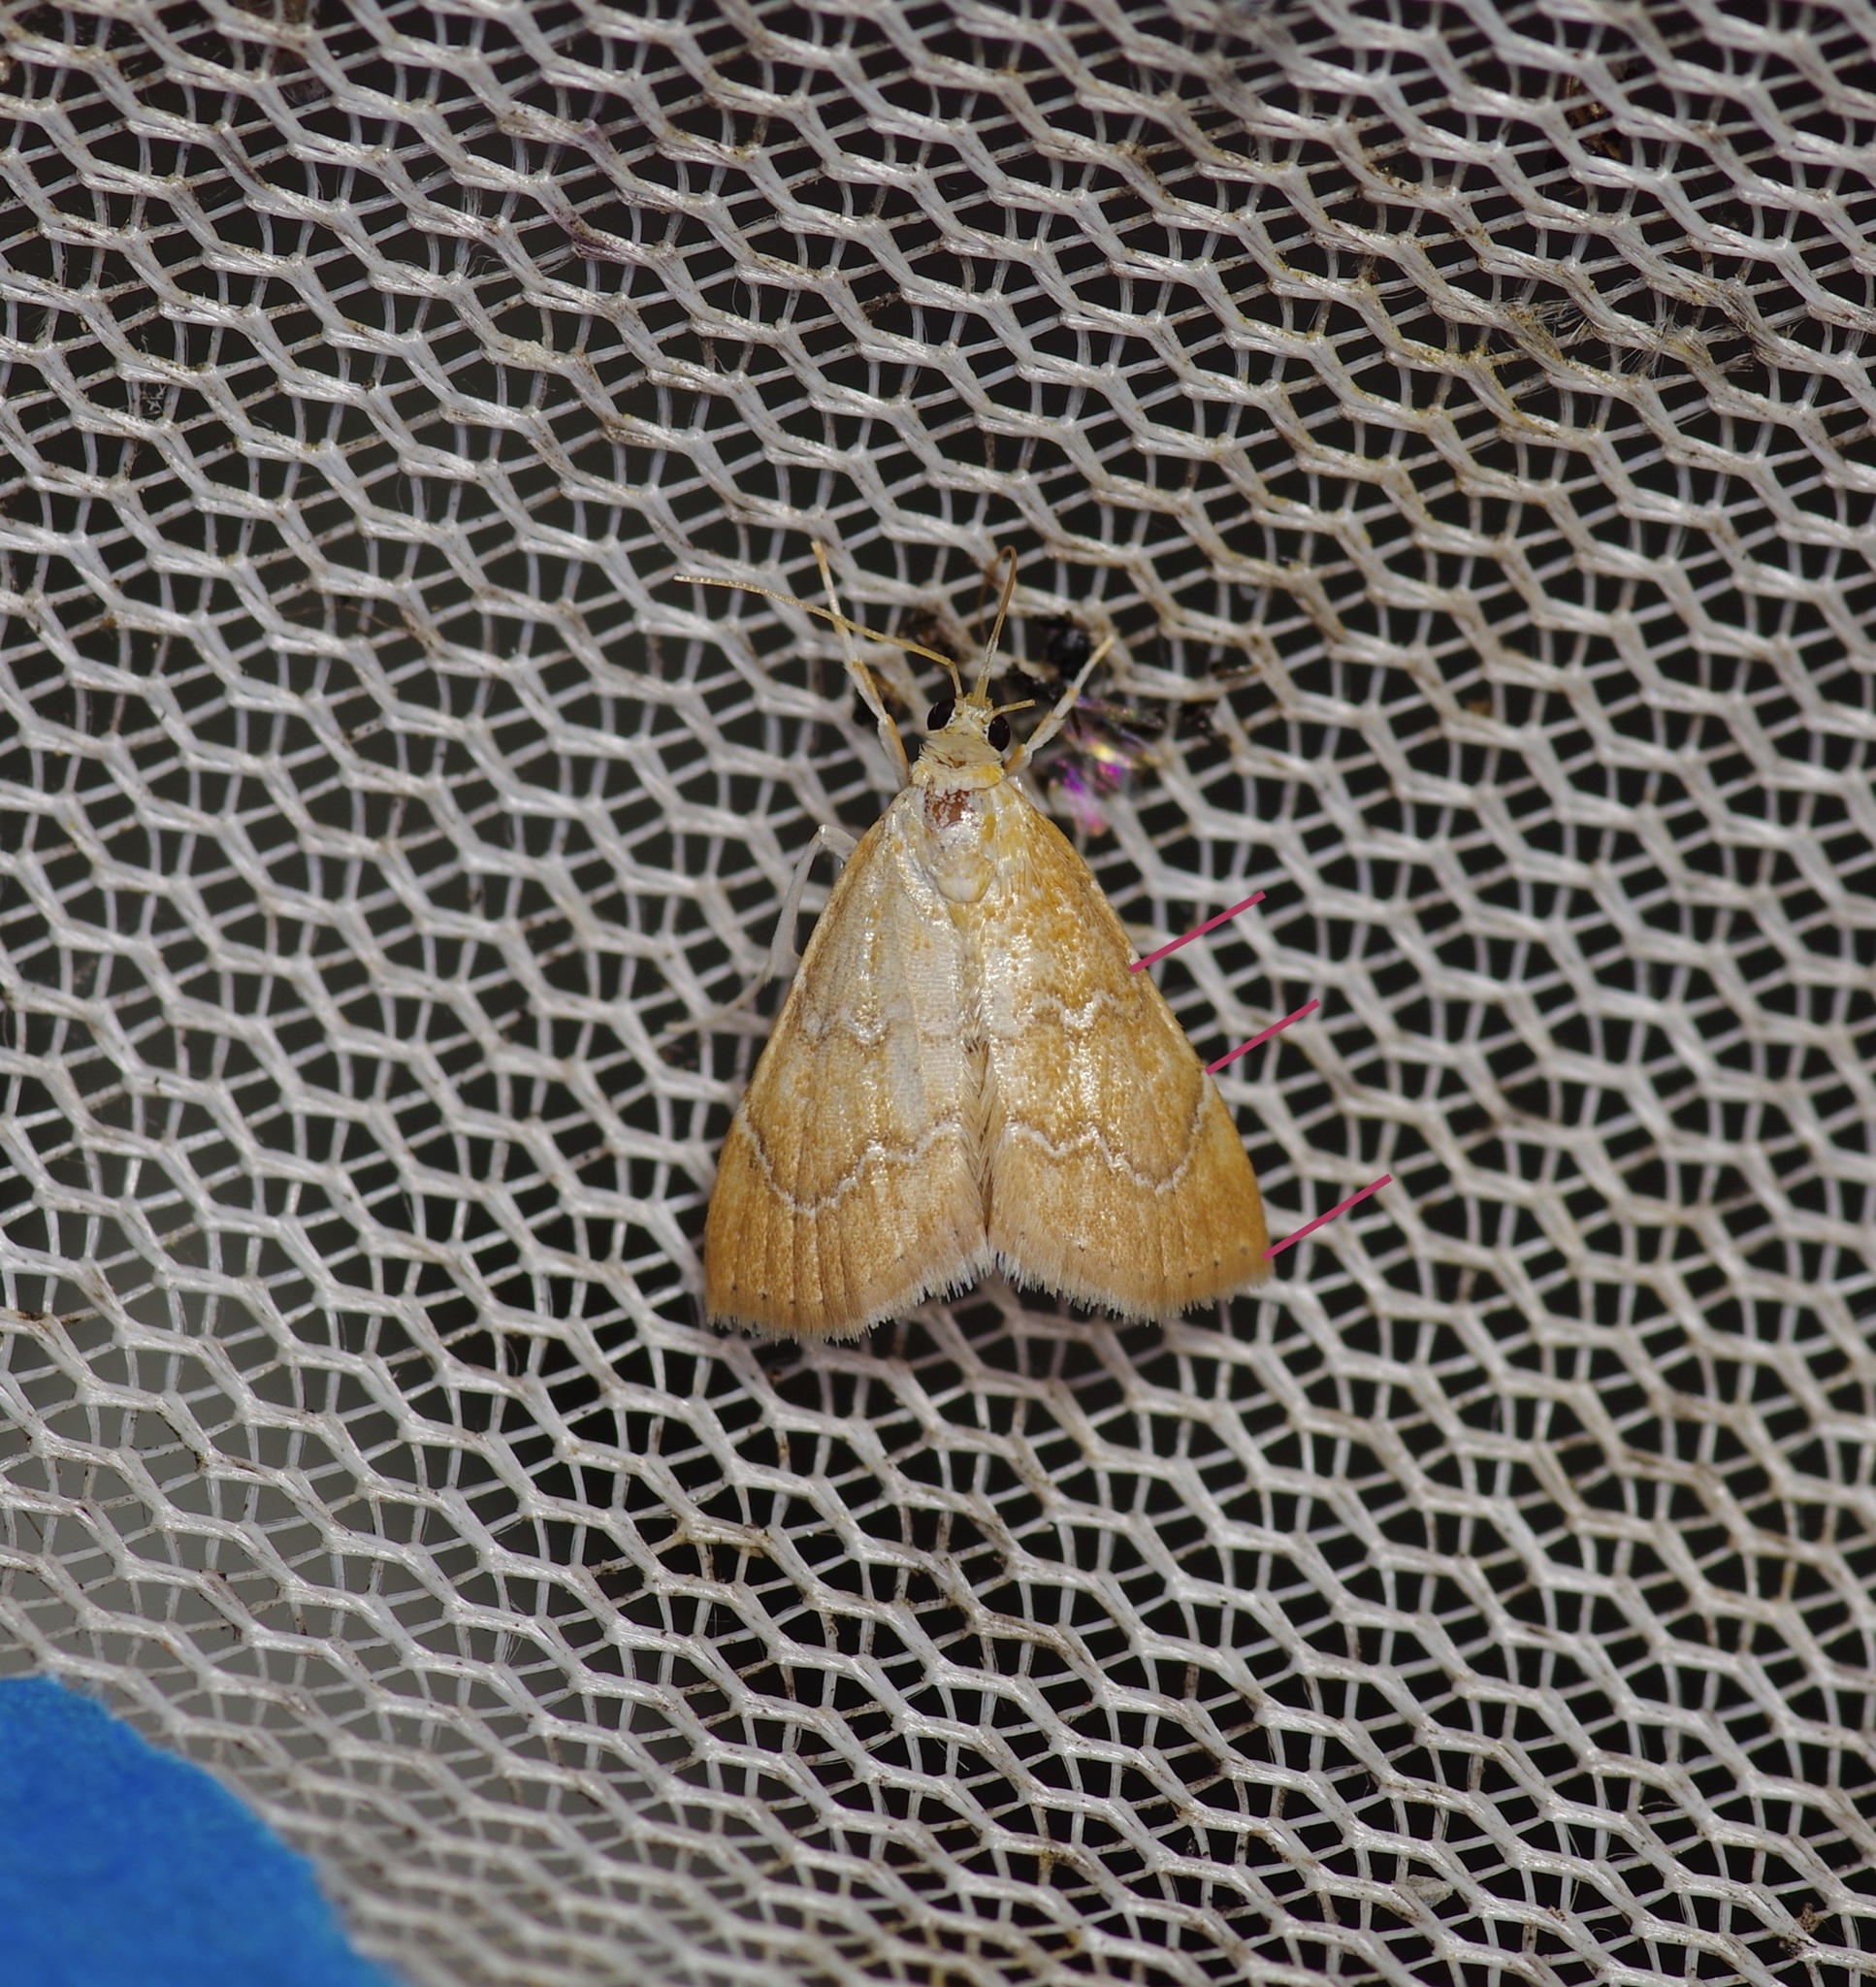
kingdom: Animalia
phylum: Arthropoda
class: Insecta
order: Lepidoptera
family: Crambidae
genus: Glaphyria
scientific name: Glaphyria sesquistrialis
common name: White-roped glaphyria
